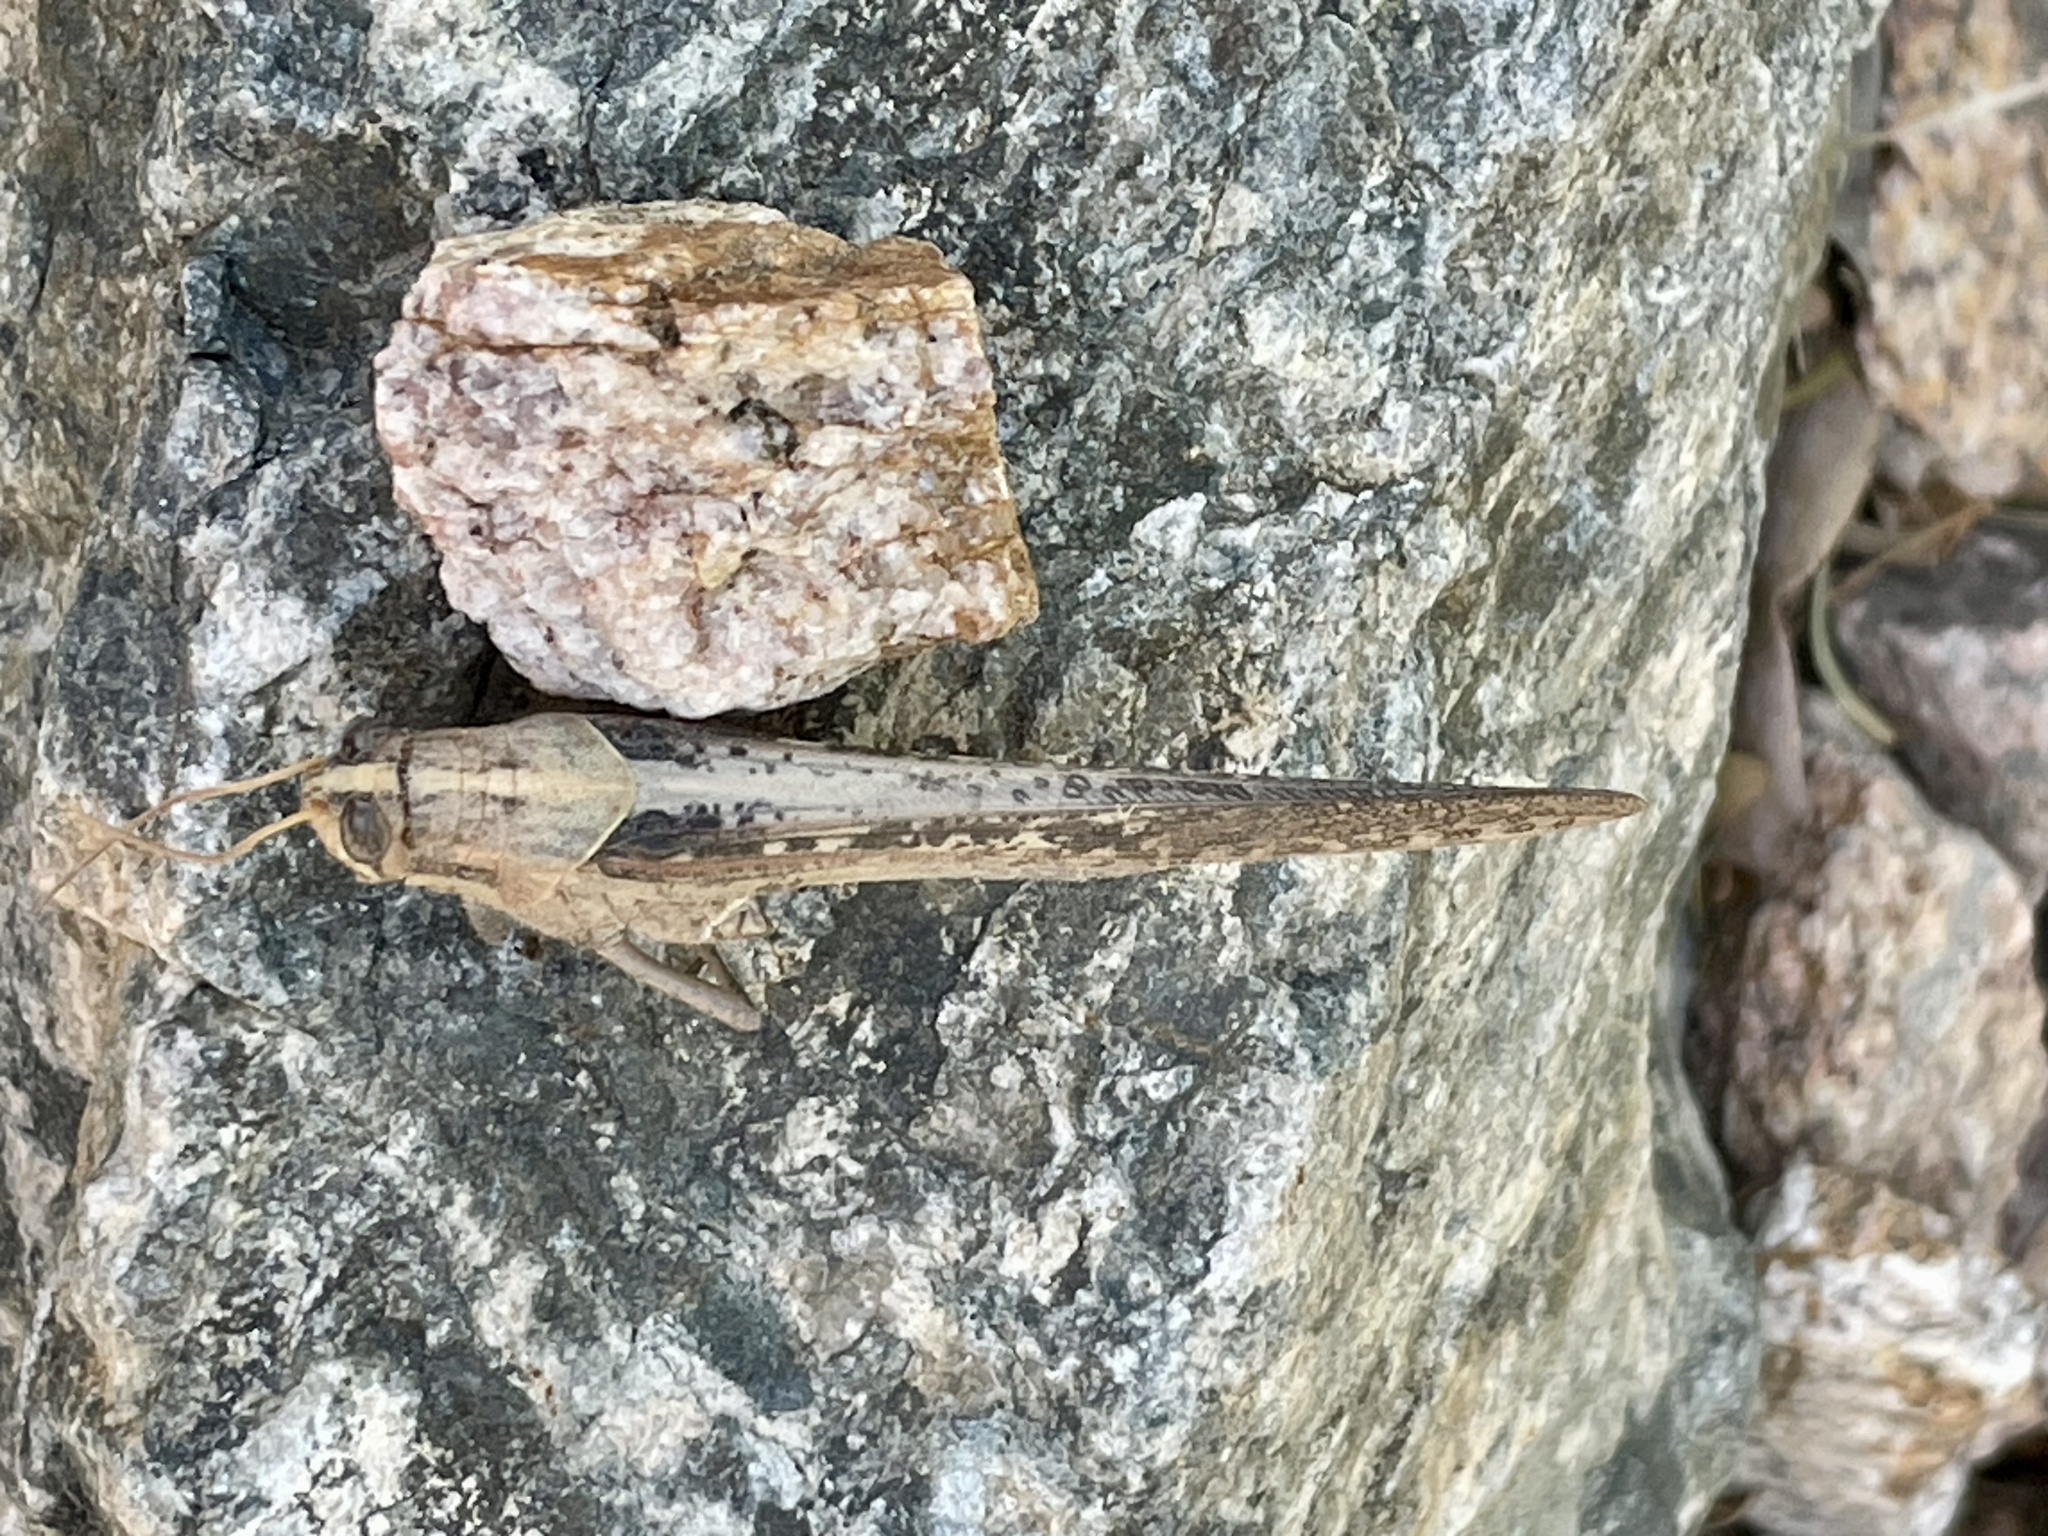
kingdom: Animalia
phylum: Arthropoda
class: Insecta
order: Orthoptera
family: Acrididae
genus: Schistocerca
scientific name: Schistocerca nitens
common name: Vagrant grasshopper
